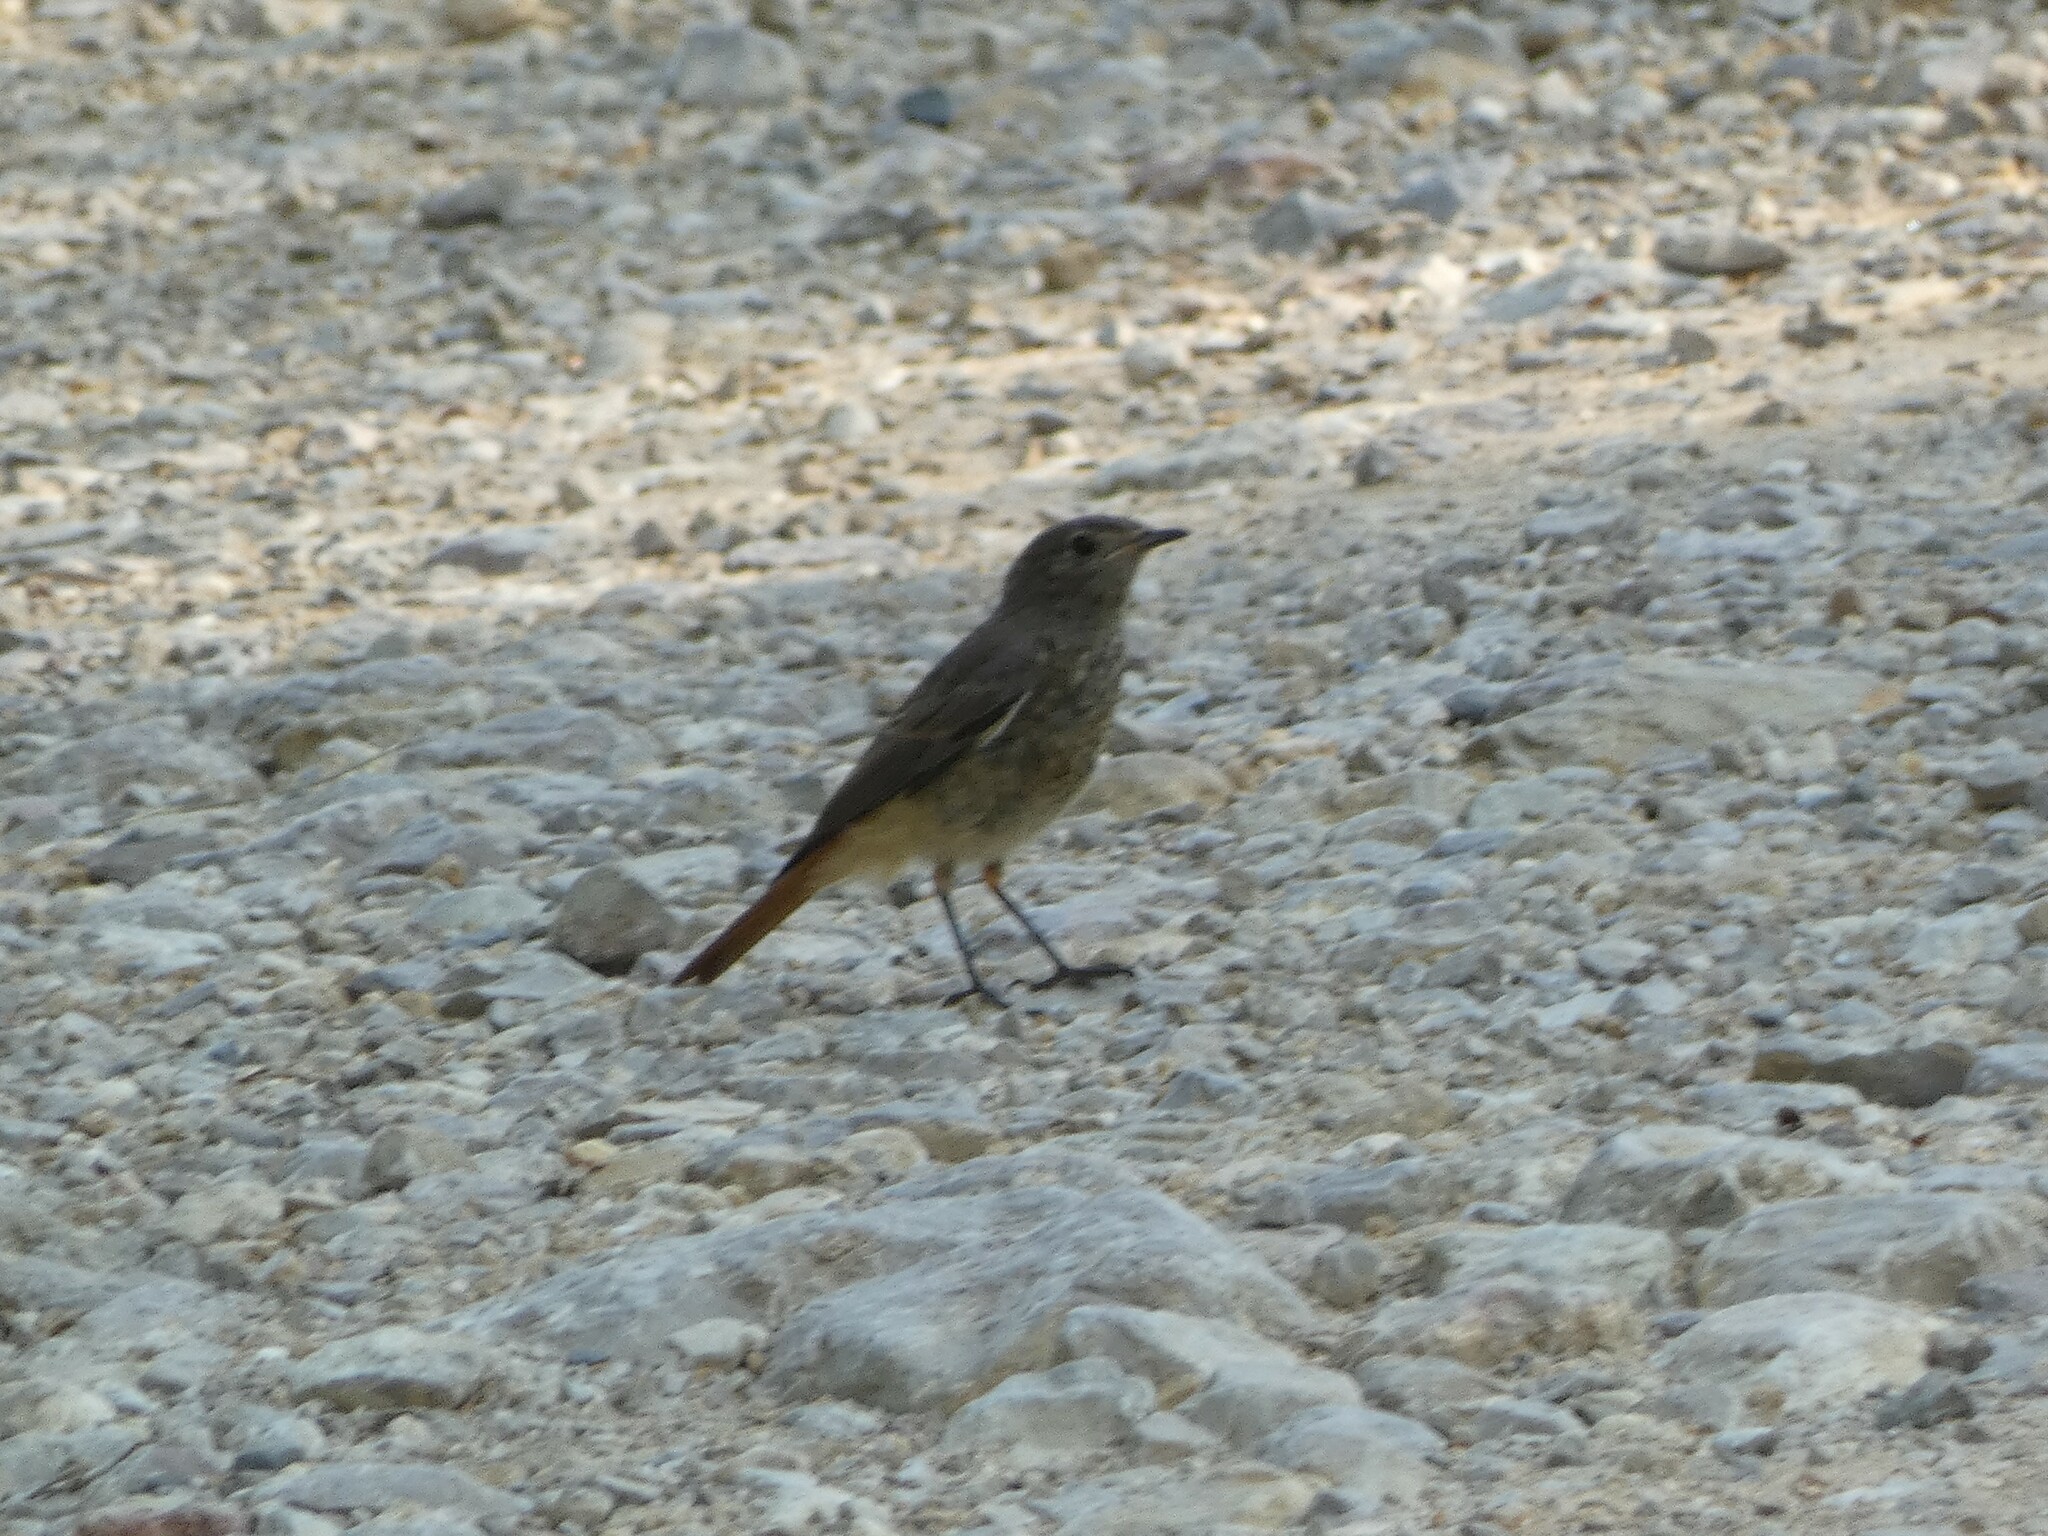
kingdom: Animalia
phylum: Chordata
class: Aves
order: Passeriformes
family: Muscicapidae
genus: Phoenicurus
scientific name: Phoenicurus ochruros
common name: Black redstart
